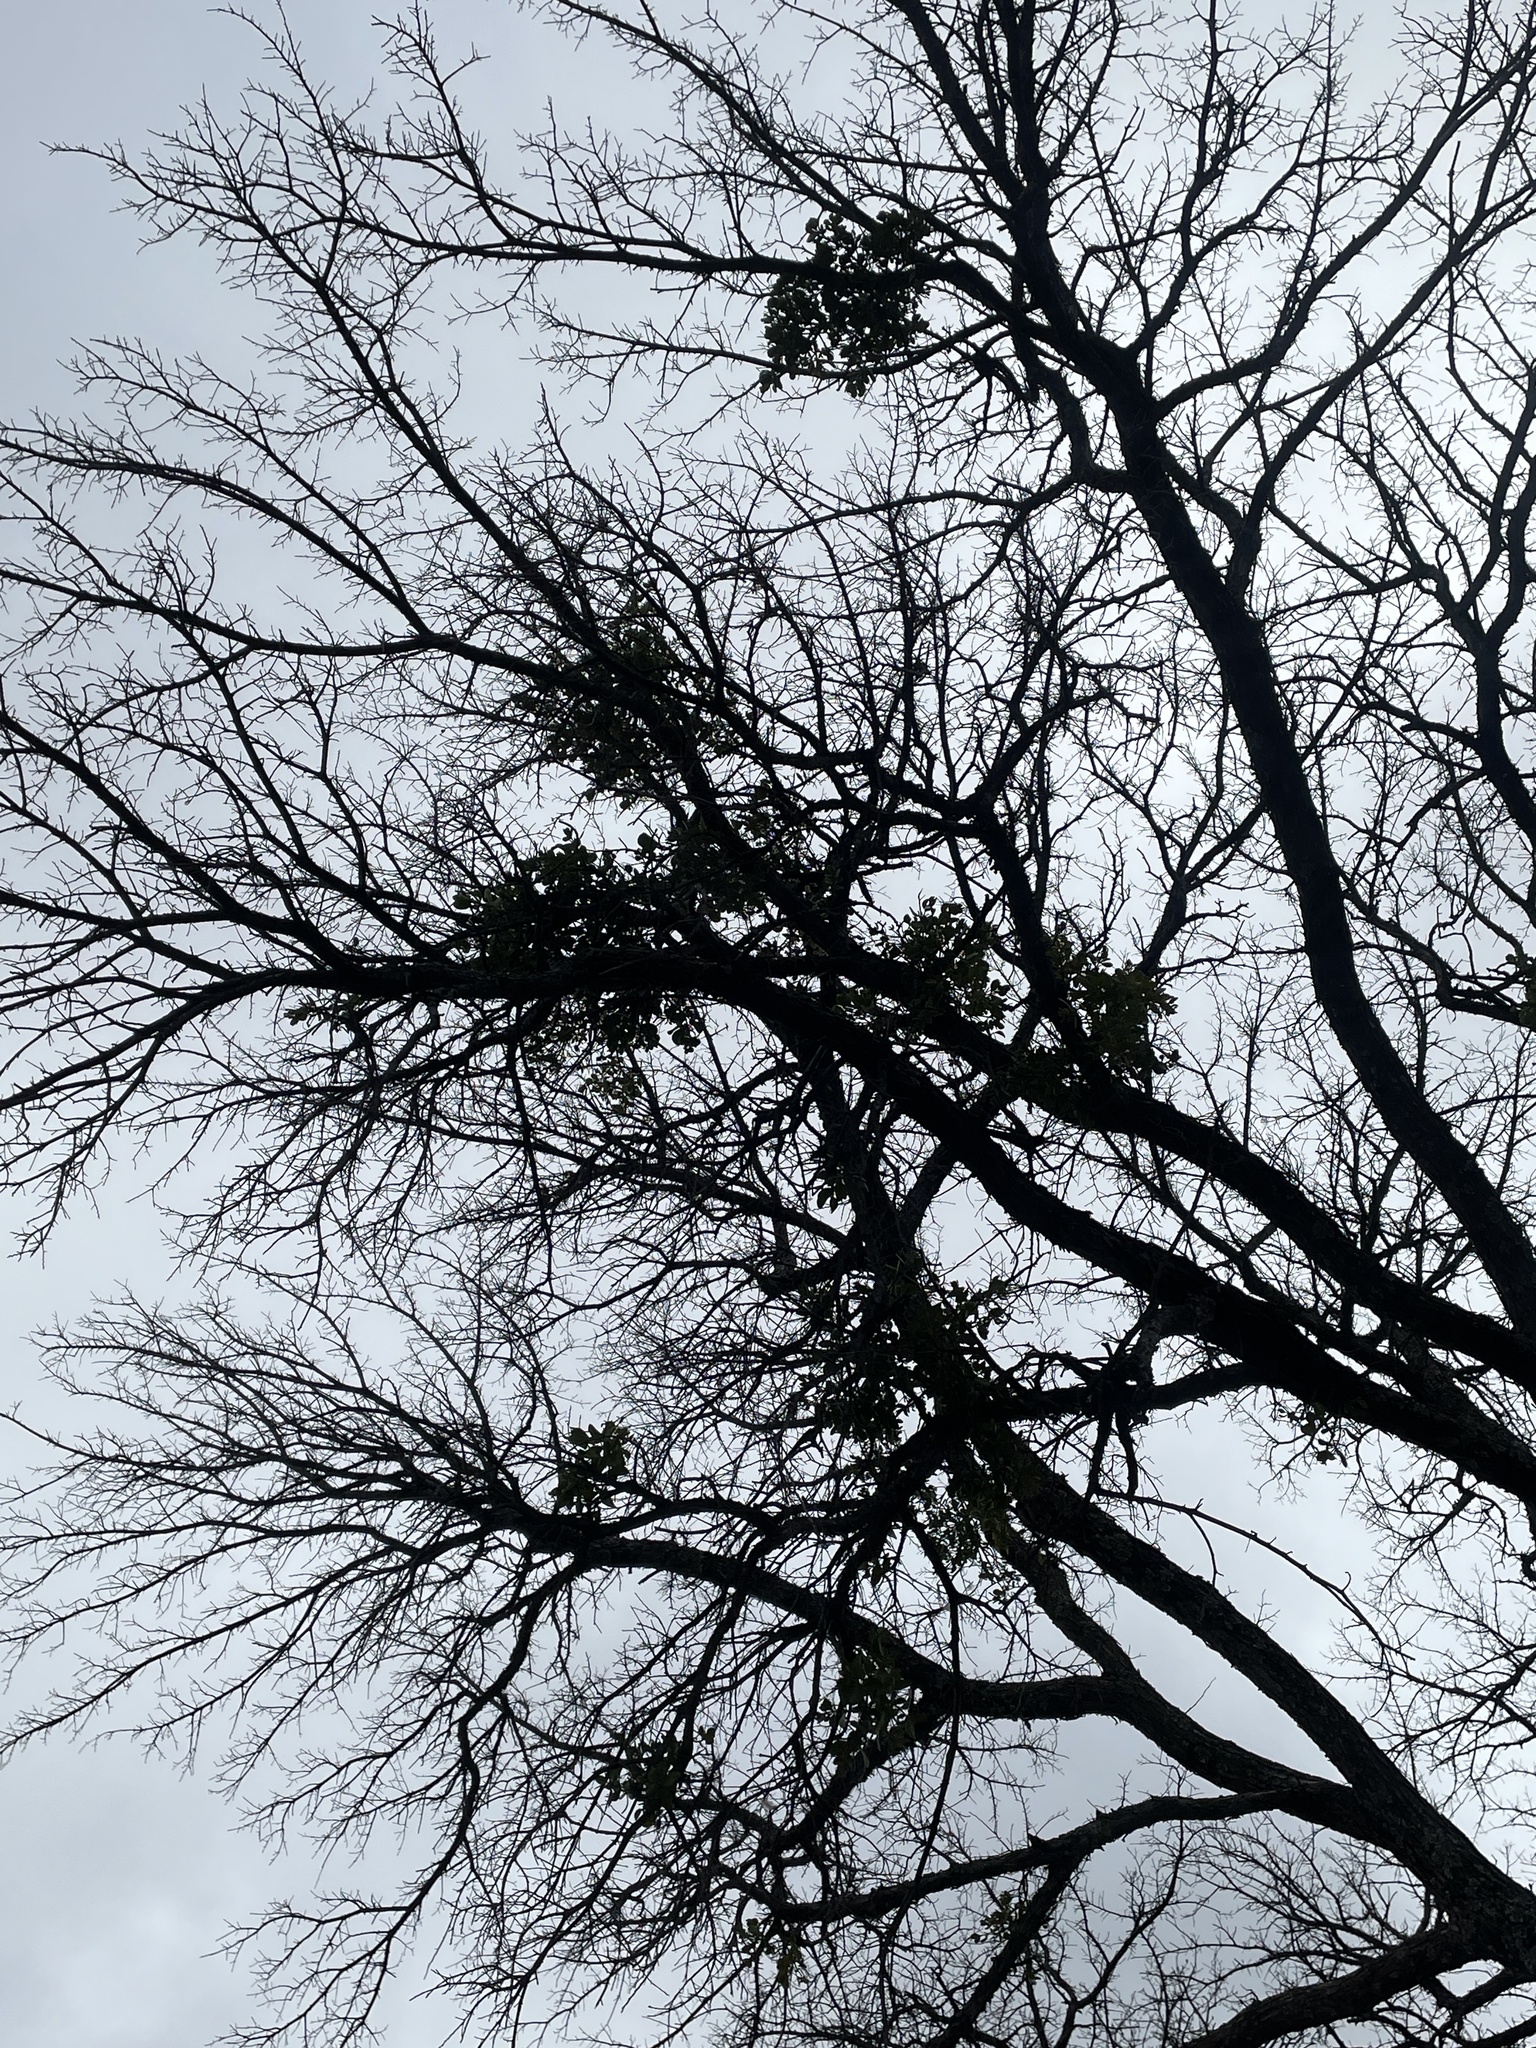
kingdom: Plantae
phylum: Tracheophyta
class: Magnoliopsida
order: Santalales
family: Viscaceae
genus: Phoradendron
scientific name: Phoradendron leucarpum
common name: Pacific mistletoe
